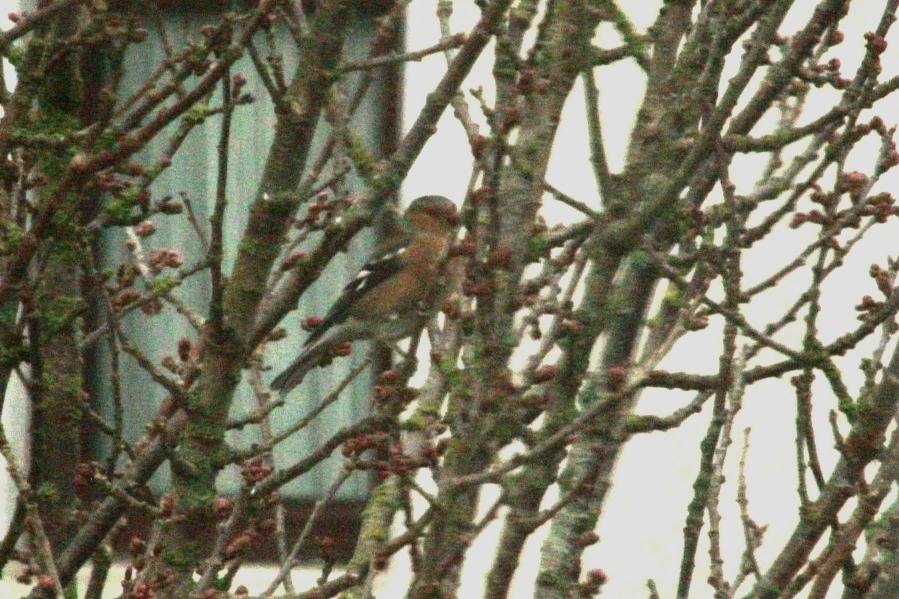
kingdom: Animalia
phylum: Chordata
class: Aves
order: Passeriformes
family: Fringillidae
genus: Fringilla
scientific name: Fringilla coelebs
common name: Common chaffinch
